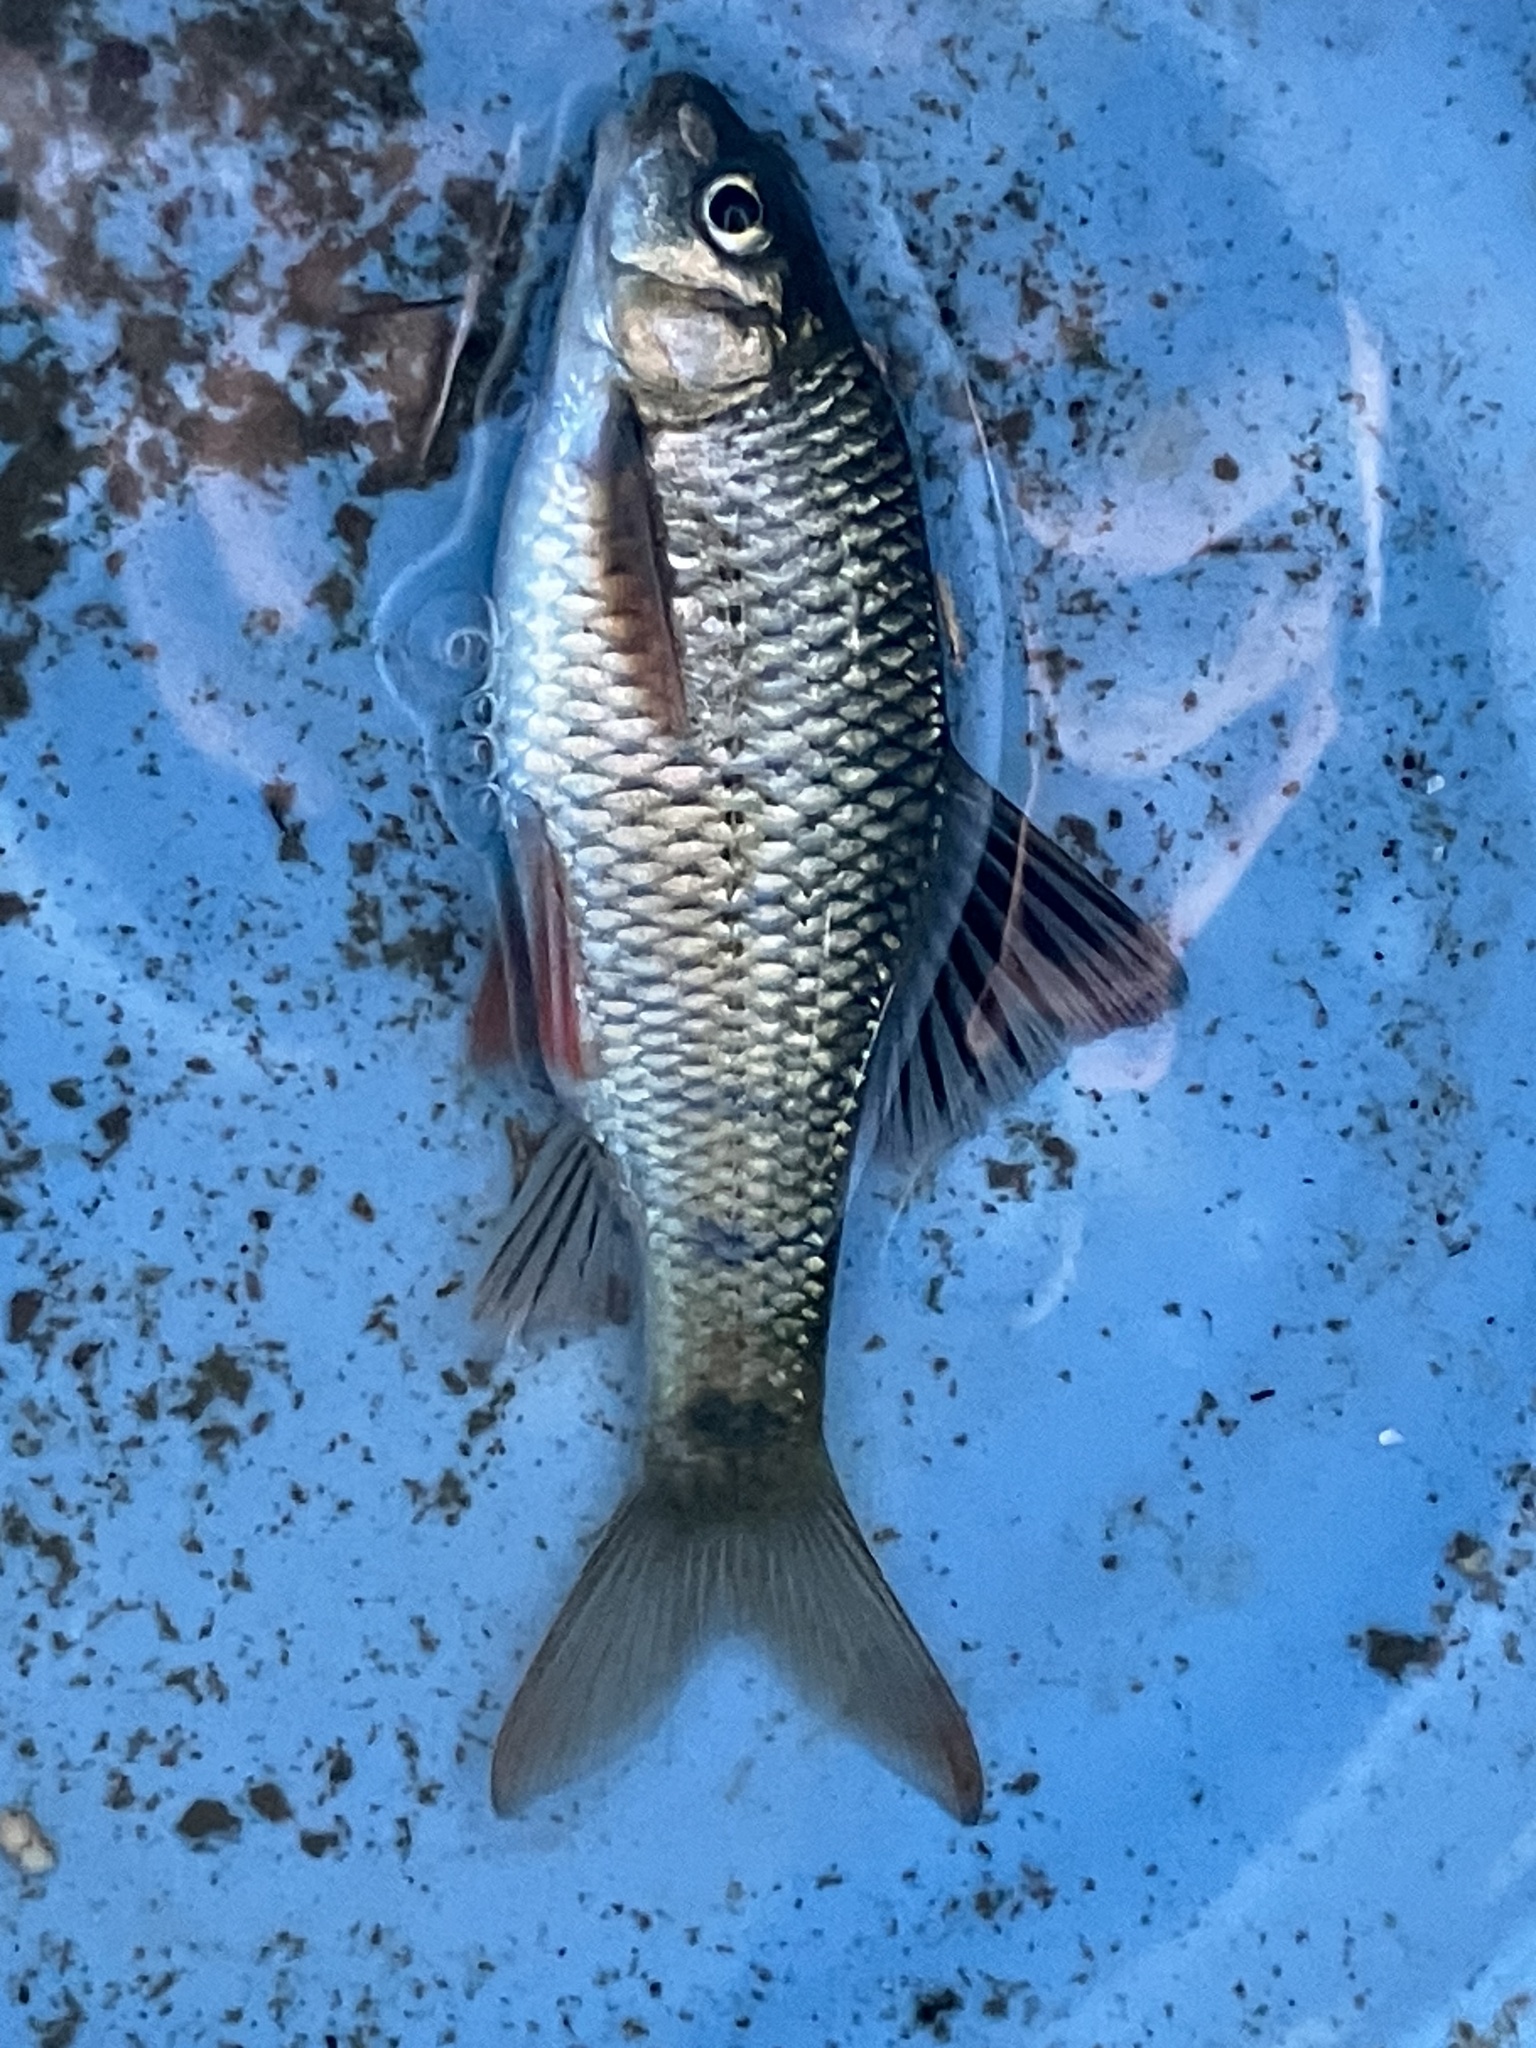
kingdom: Animalia
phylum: Chordata
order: Cypriniformes
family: Cyprinidae
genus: Acrossocheilus
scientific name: Acrossocheilus paradoxus
